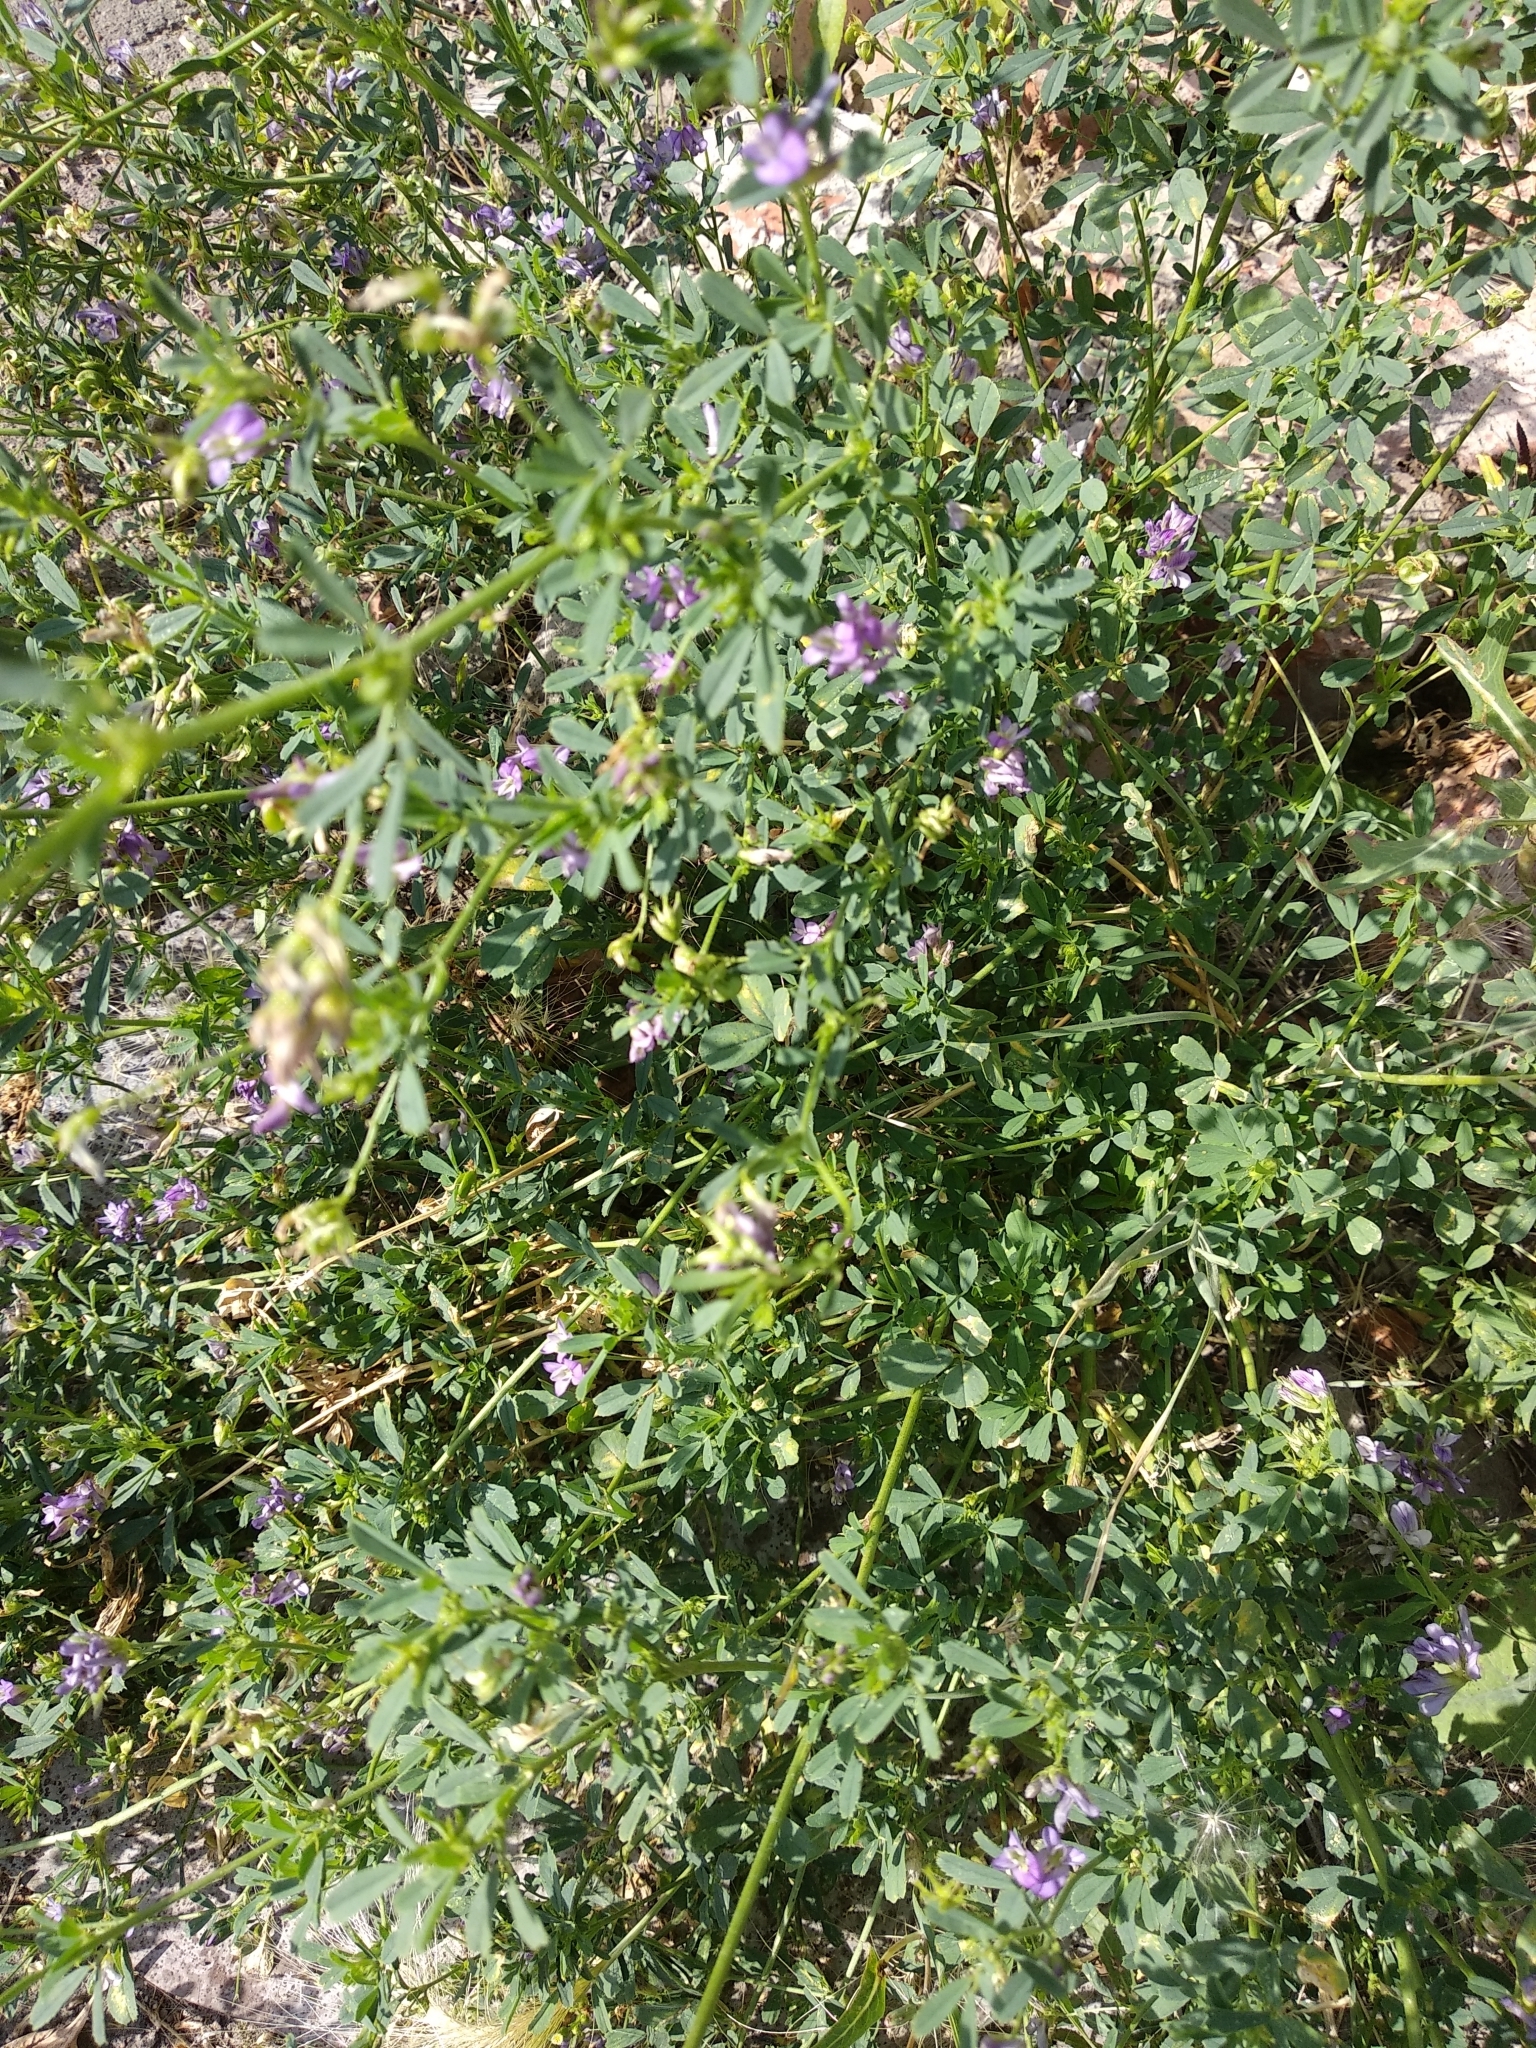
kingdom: Plantae
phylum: Tracheophyta
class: Magnoliopsida
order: Fabales
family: Fabaceae
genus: Medicago
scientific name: Medicago sativa
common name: Alfalfa
